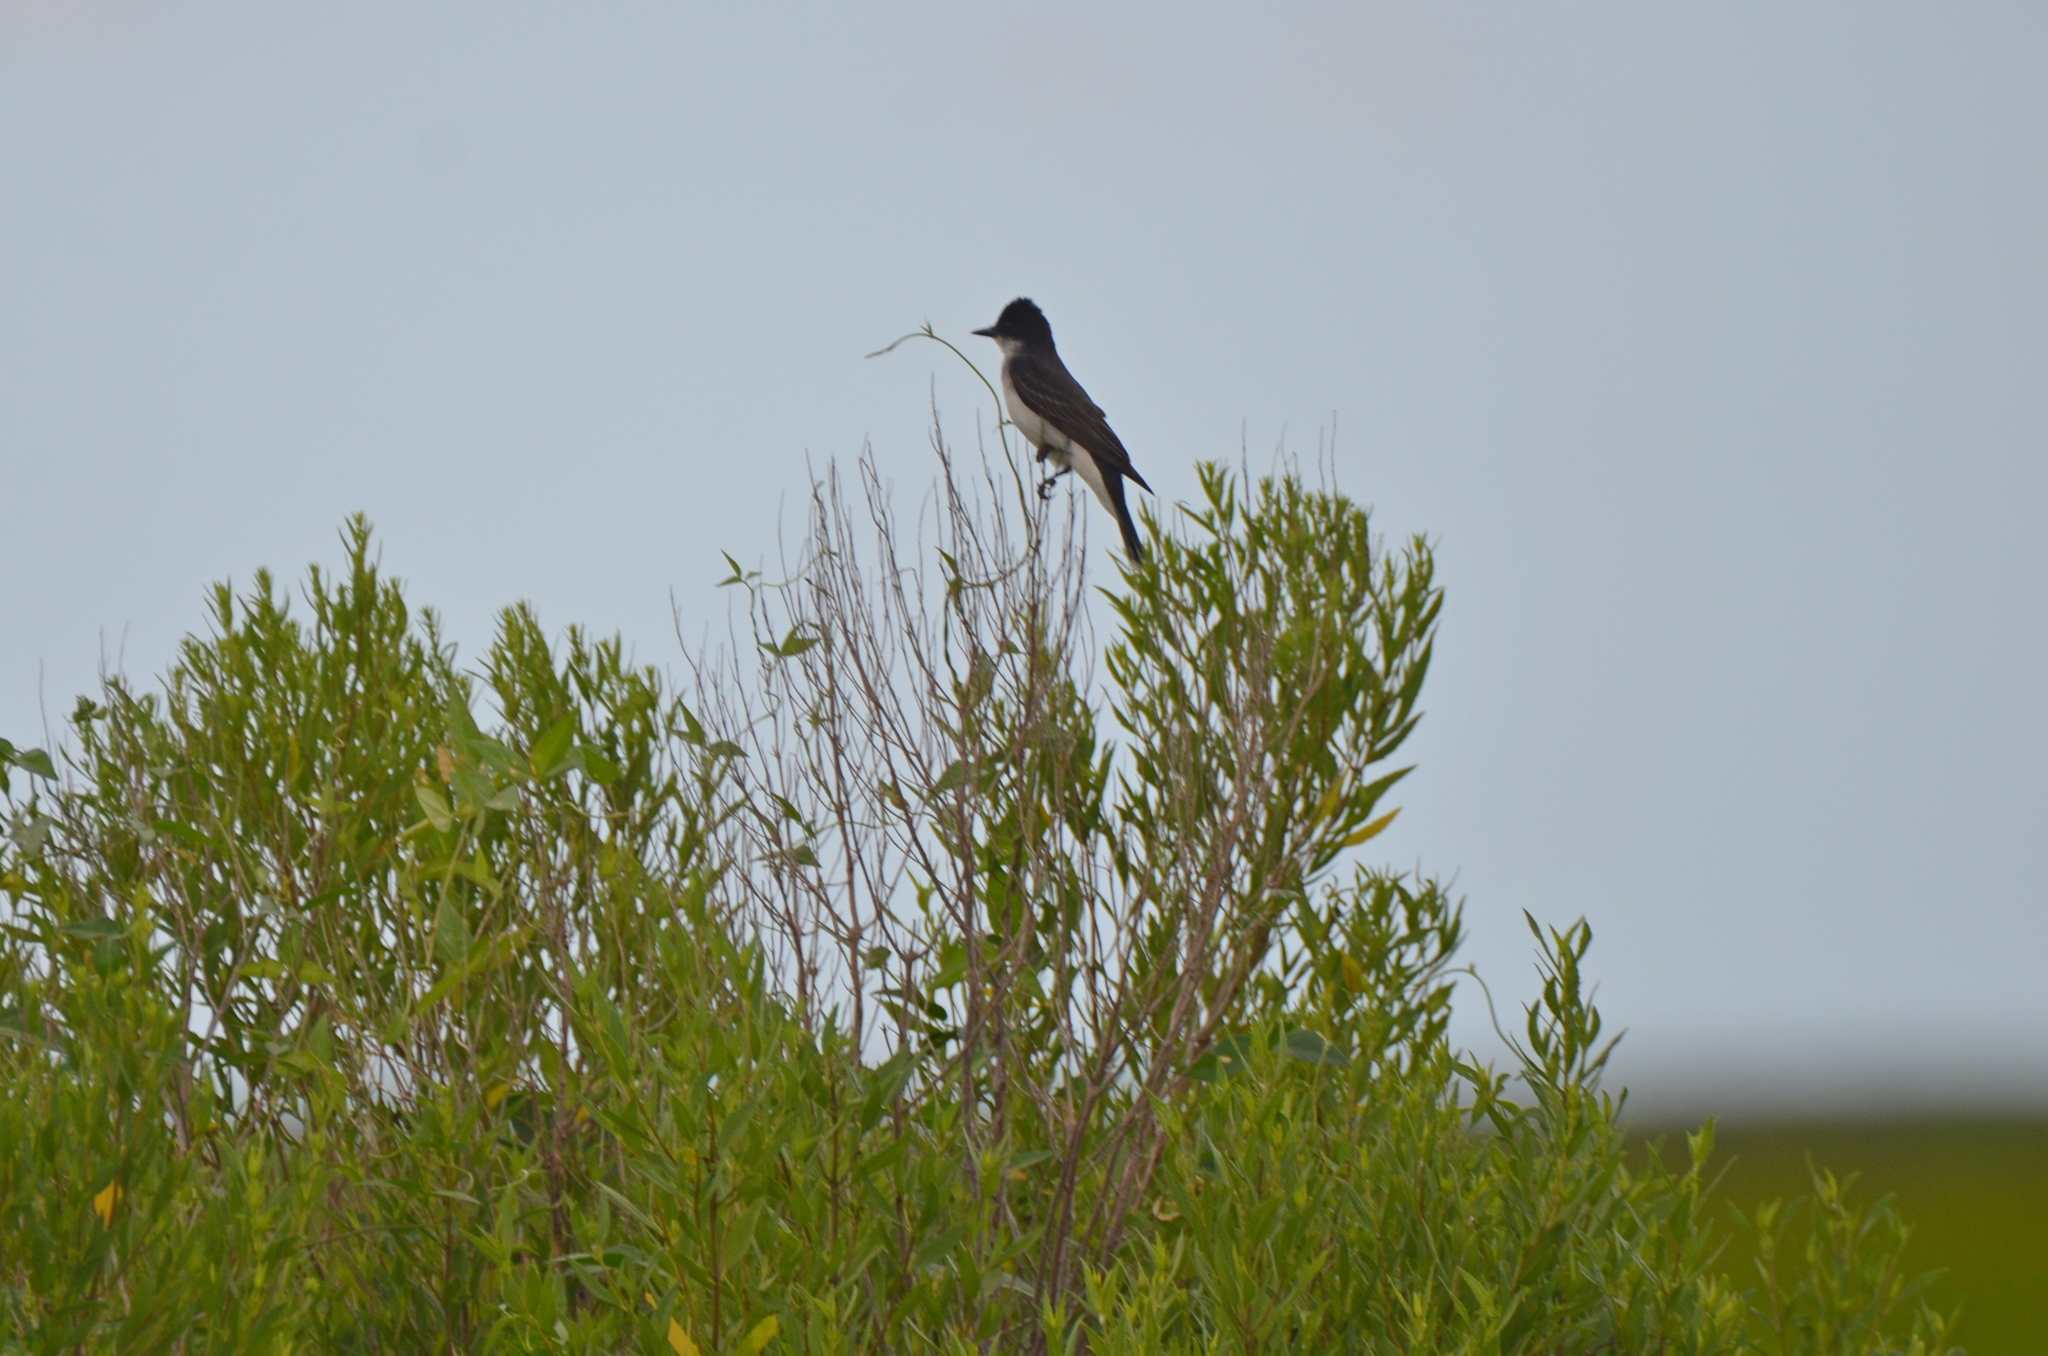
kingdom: Animalia
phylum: Chordata
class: Aves
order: Passeriformes
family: Tyrannidae
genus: Tyrannus
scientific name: Tyrannus tyrannus
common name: Eastern kingbird
